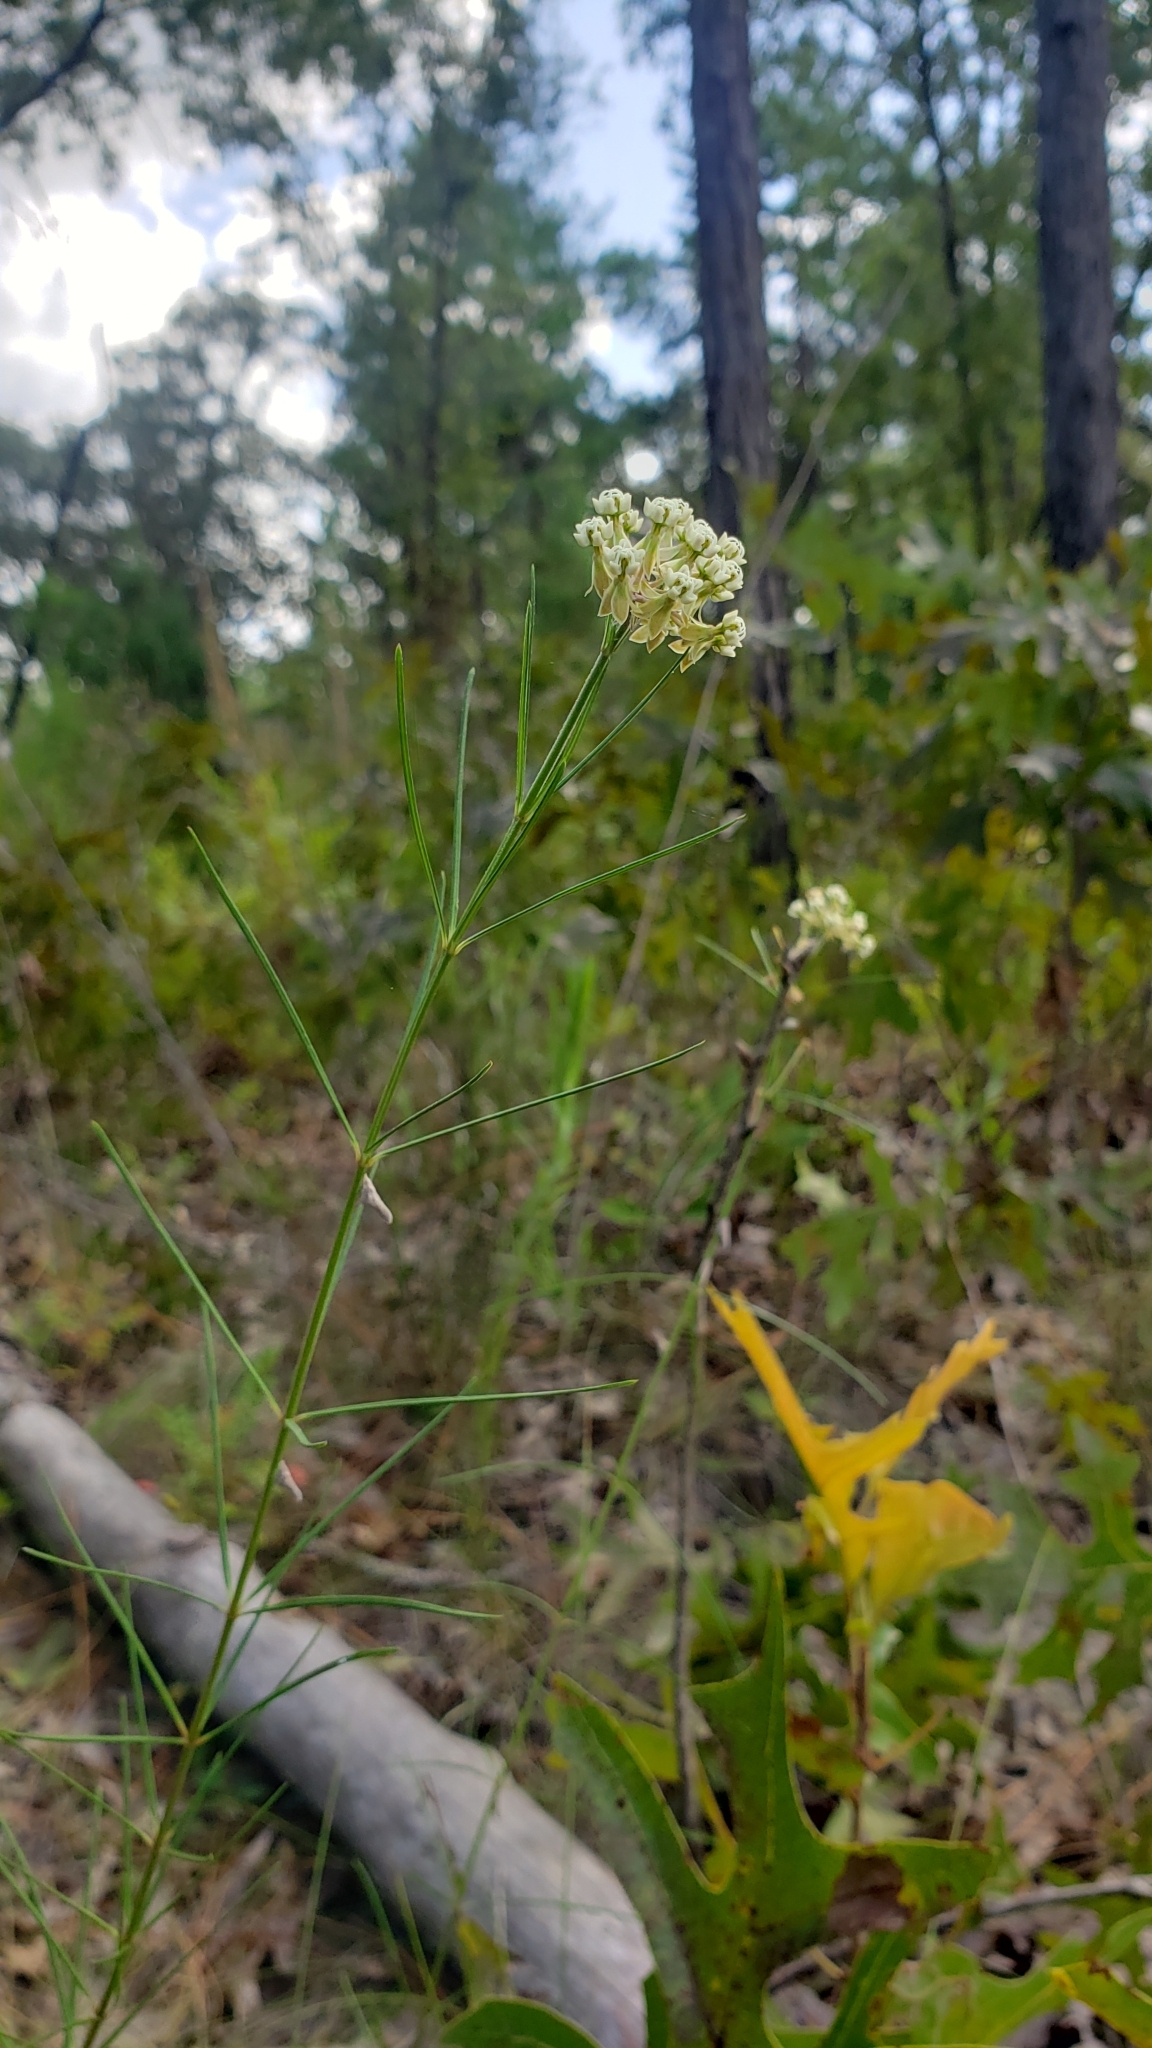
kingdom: Plantae
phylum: Tracheophyta
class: Magnoliopsida
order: Gentianales
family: Apocynaceae
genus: Asclepias
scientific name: Asclepias verticillata
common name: Eastern whorled milkweed
